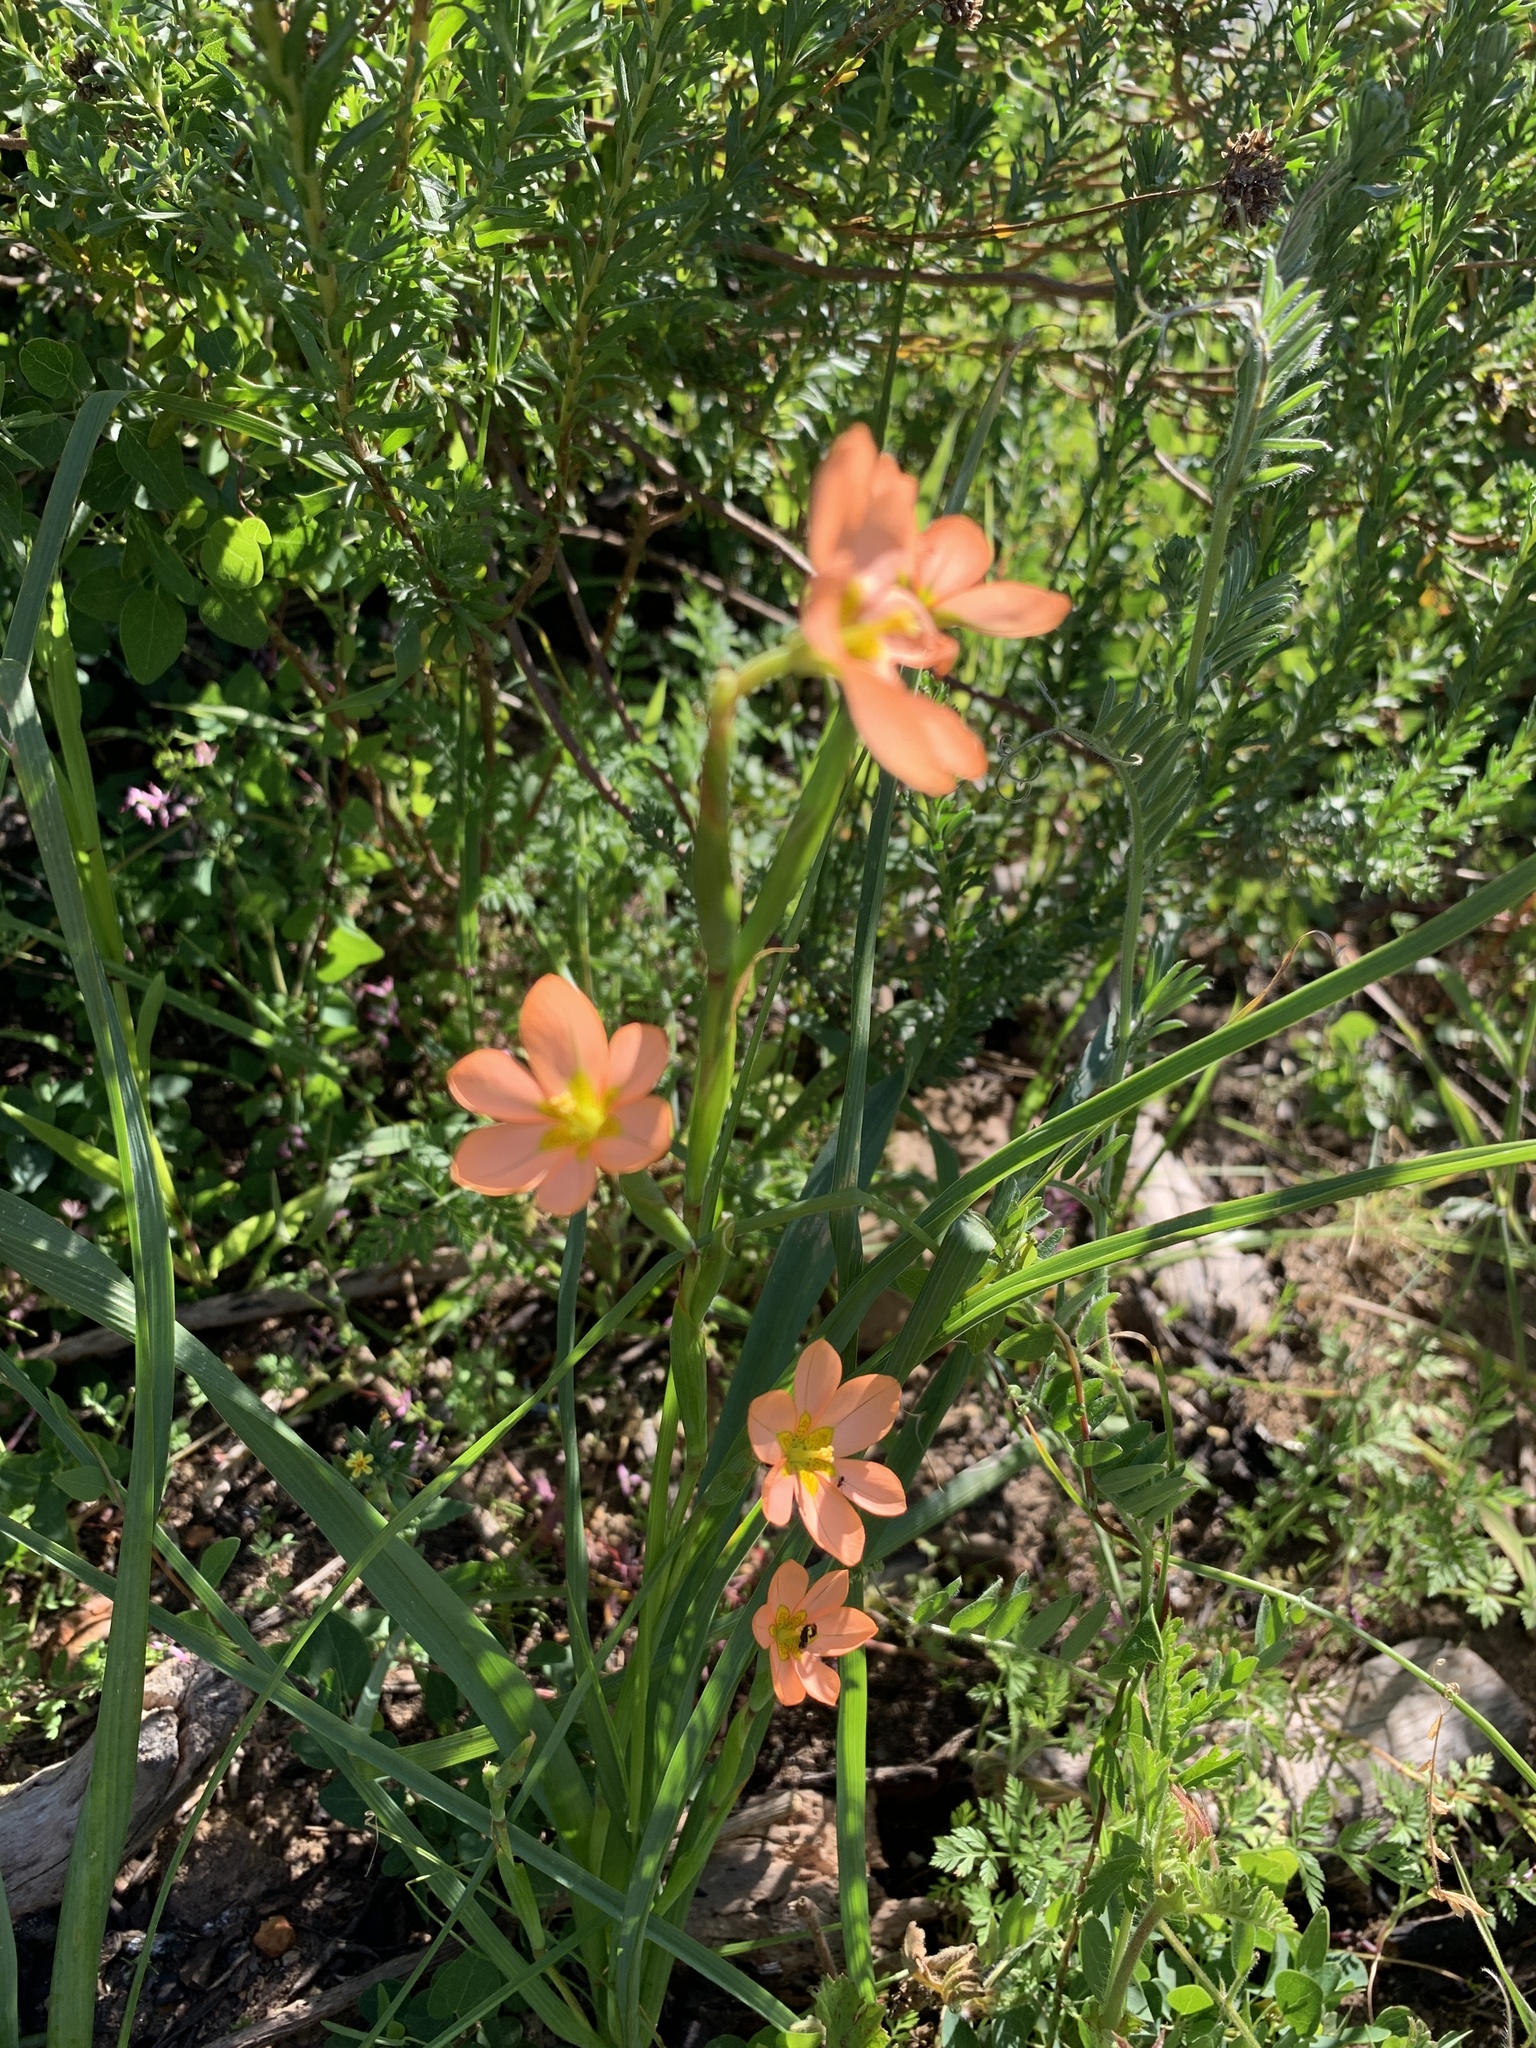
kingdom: Plantae
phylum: Tracheophyta
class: Liliopsida
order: Asparagales
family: Iridaceae
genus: Moraea
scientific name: Moraea miniata
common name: Two-leaf cape-tulip
